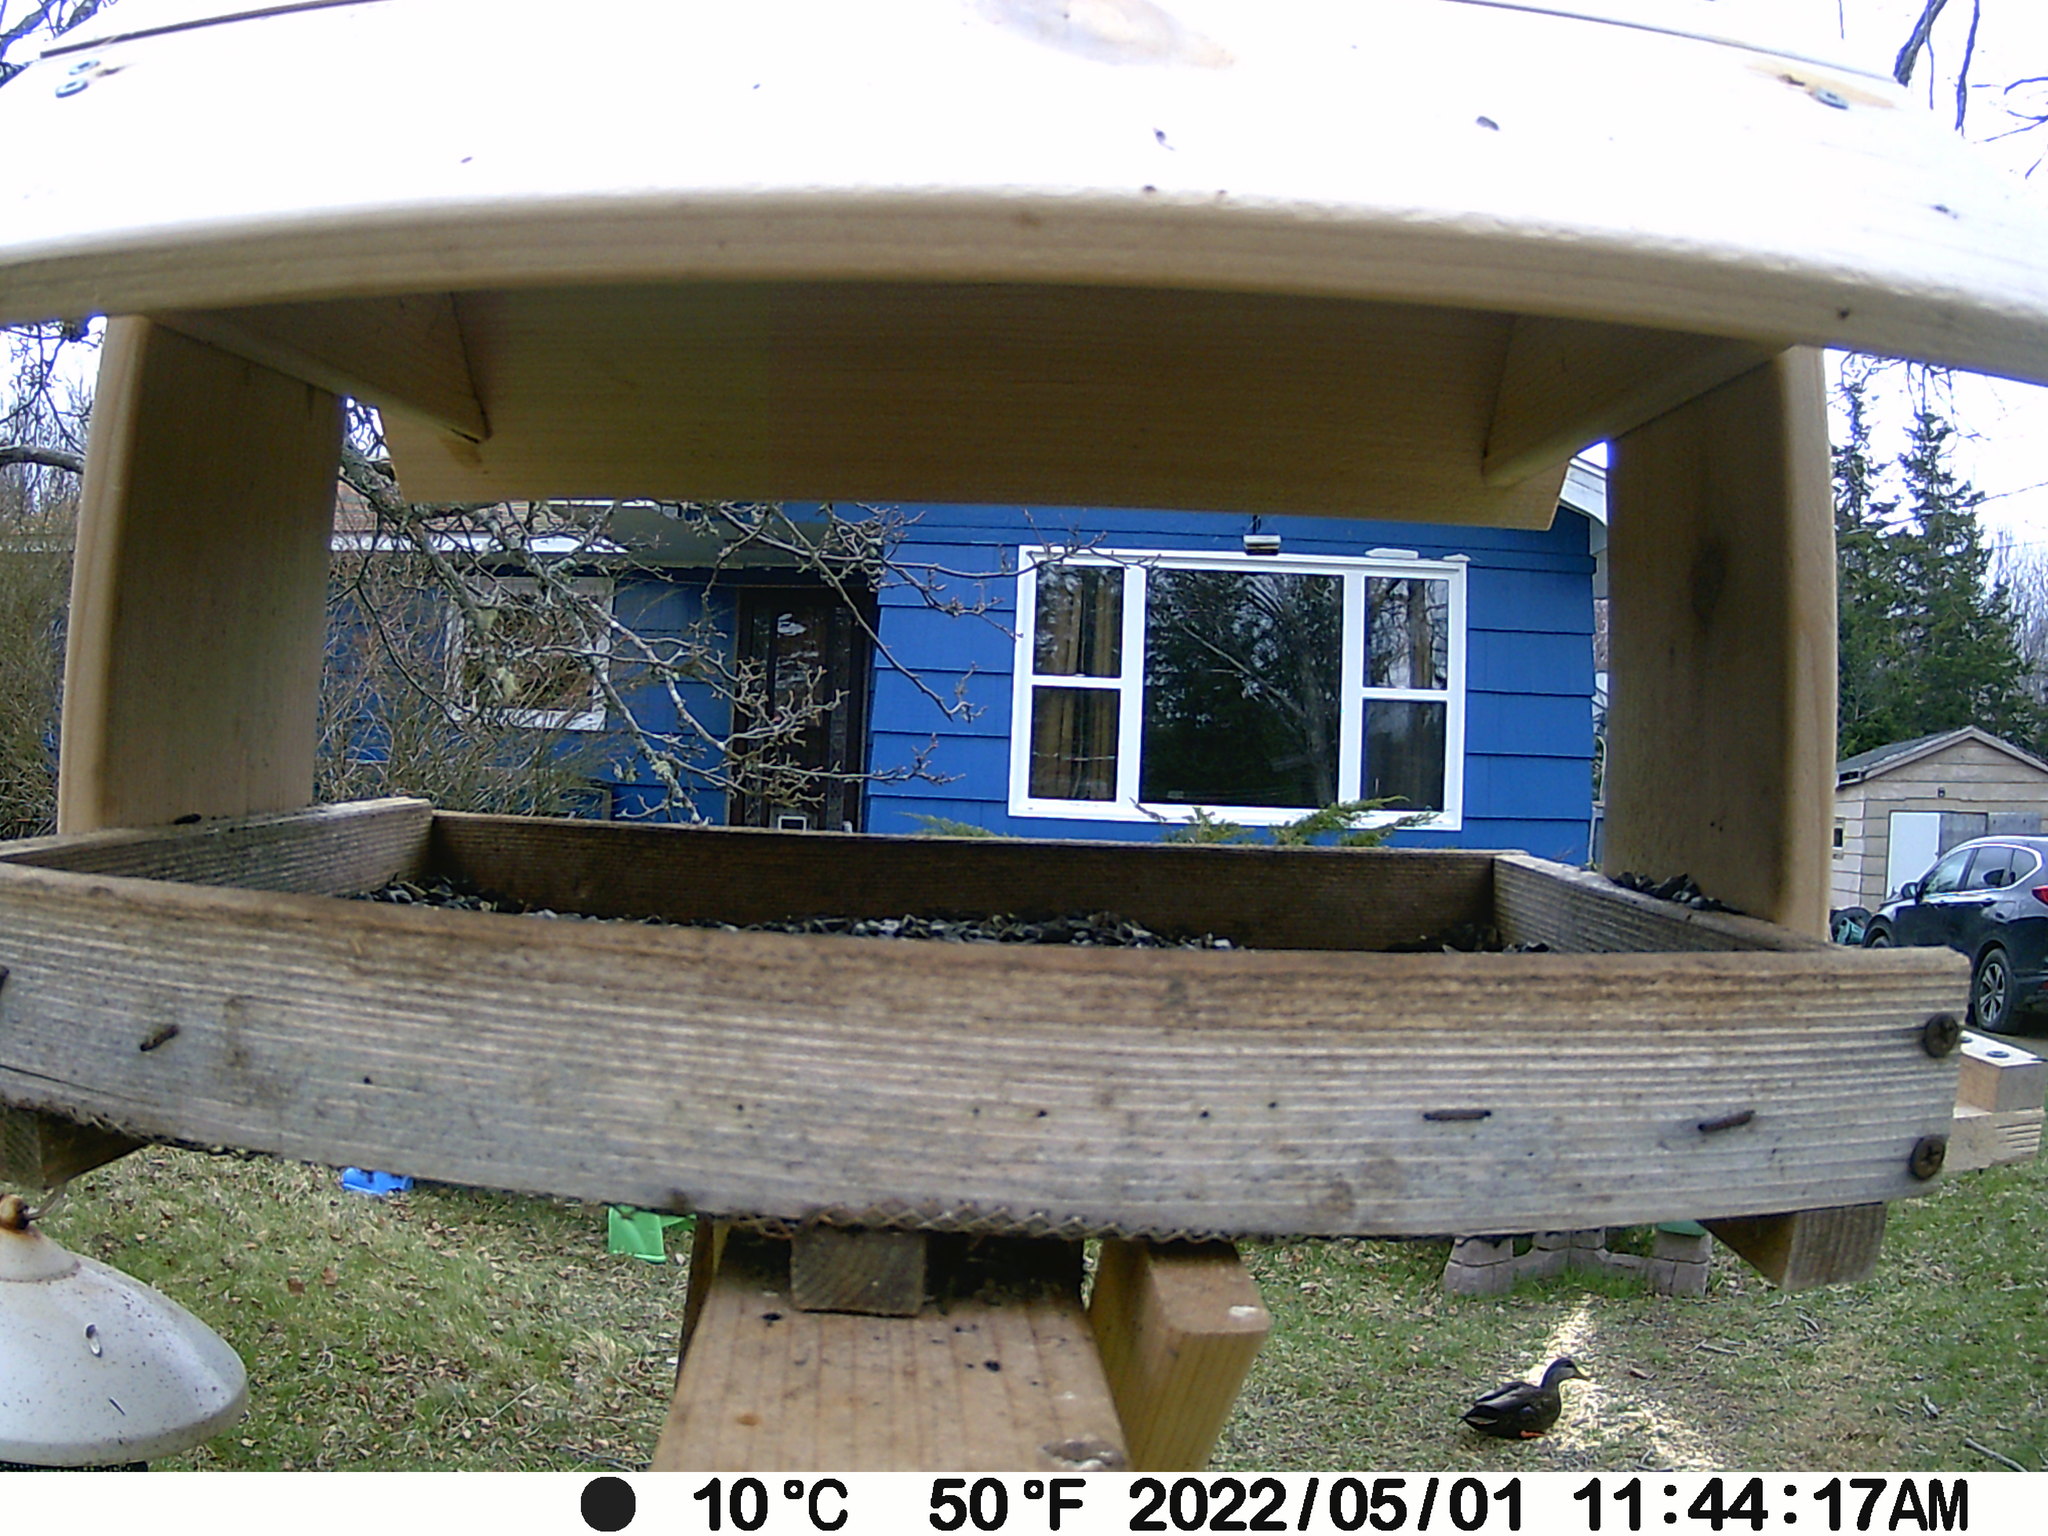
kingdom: Animalia
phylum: Chordata
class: Aves
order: Anseriformes
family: Anatidae
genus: Anas
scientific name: Anas rubripes
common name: American black duck
